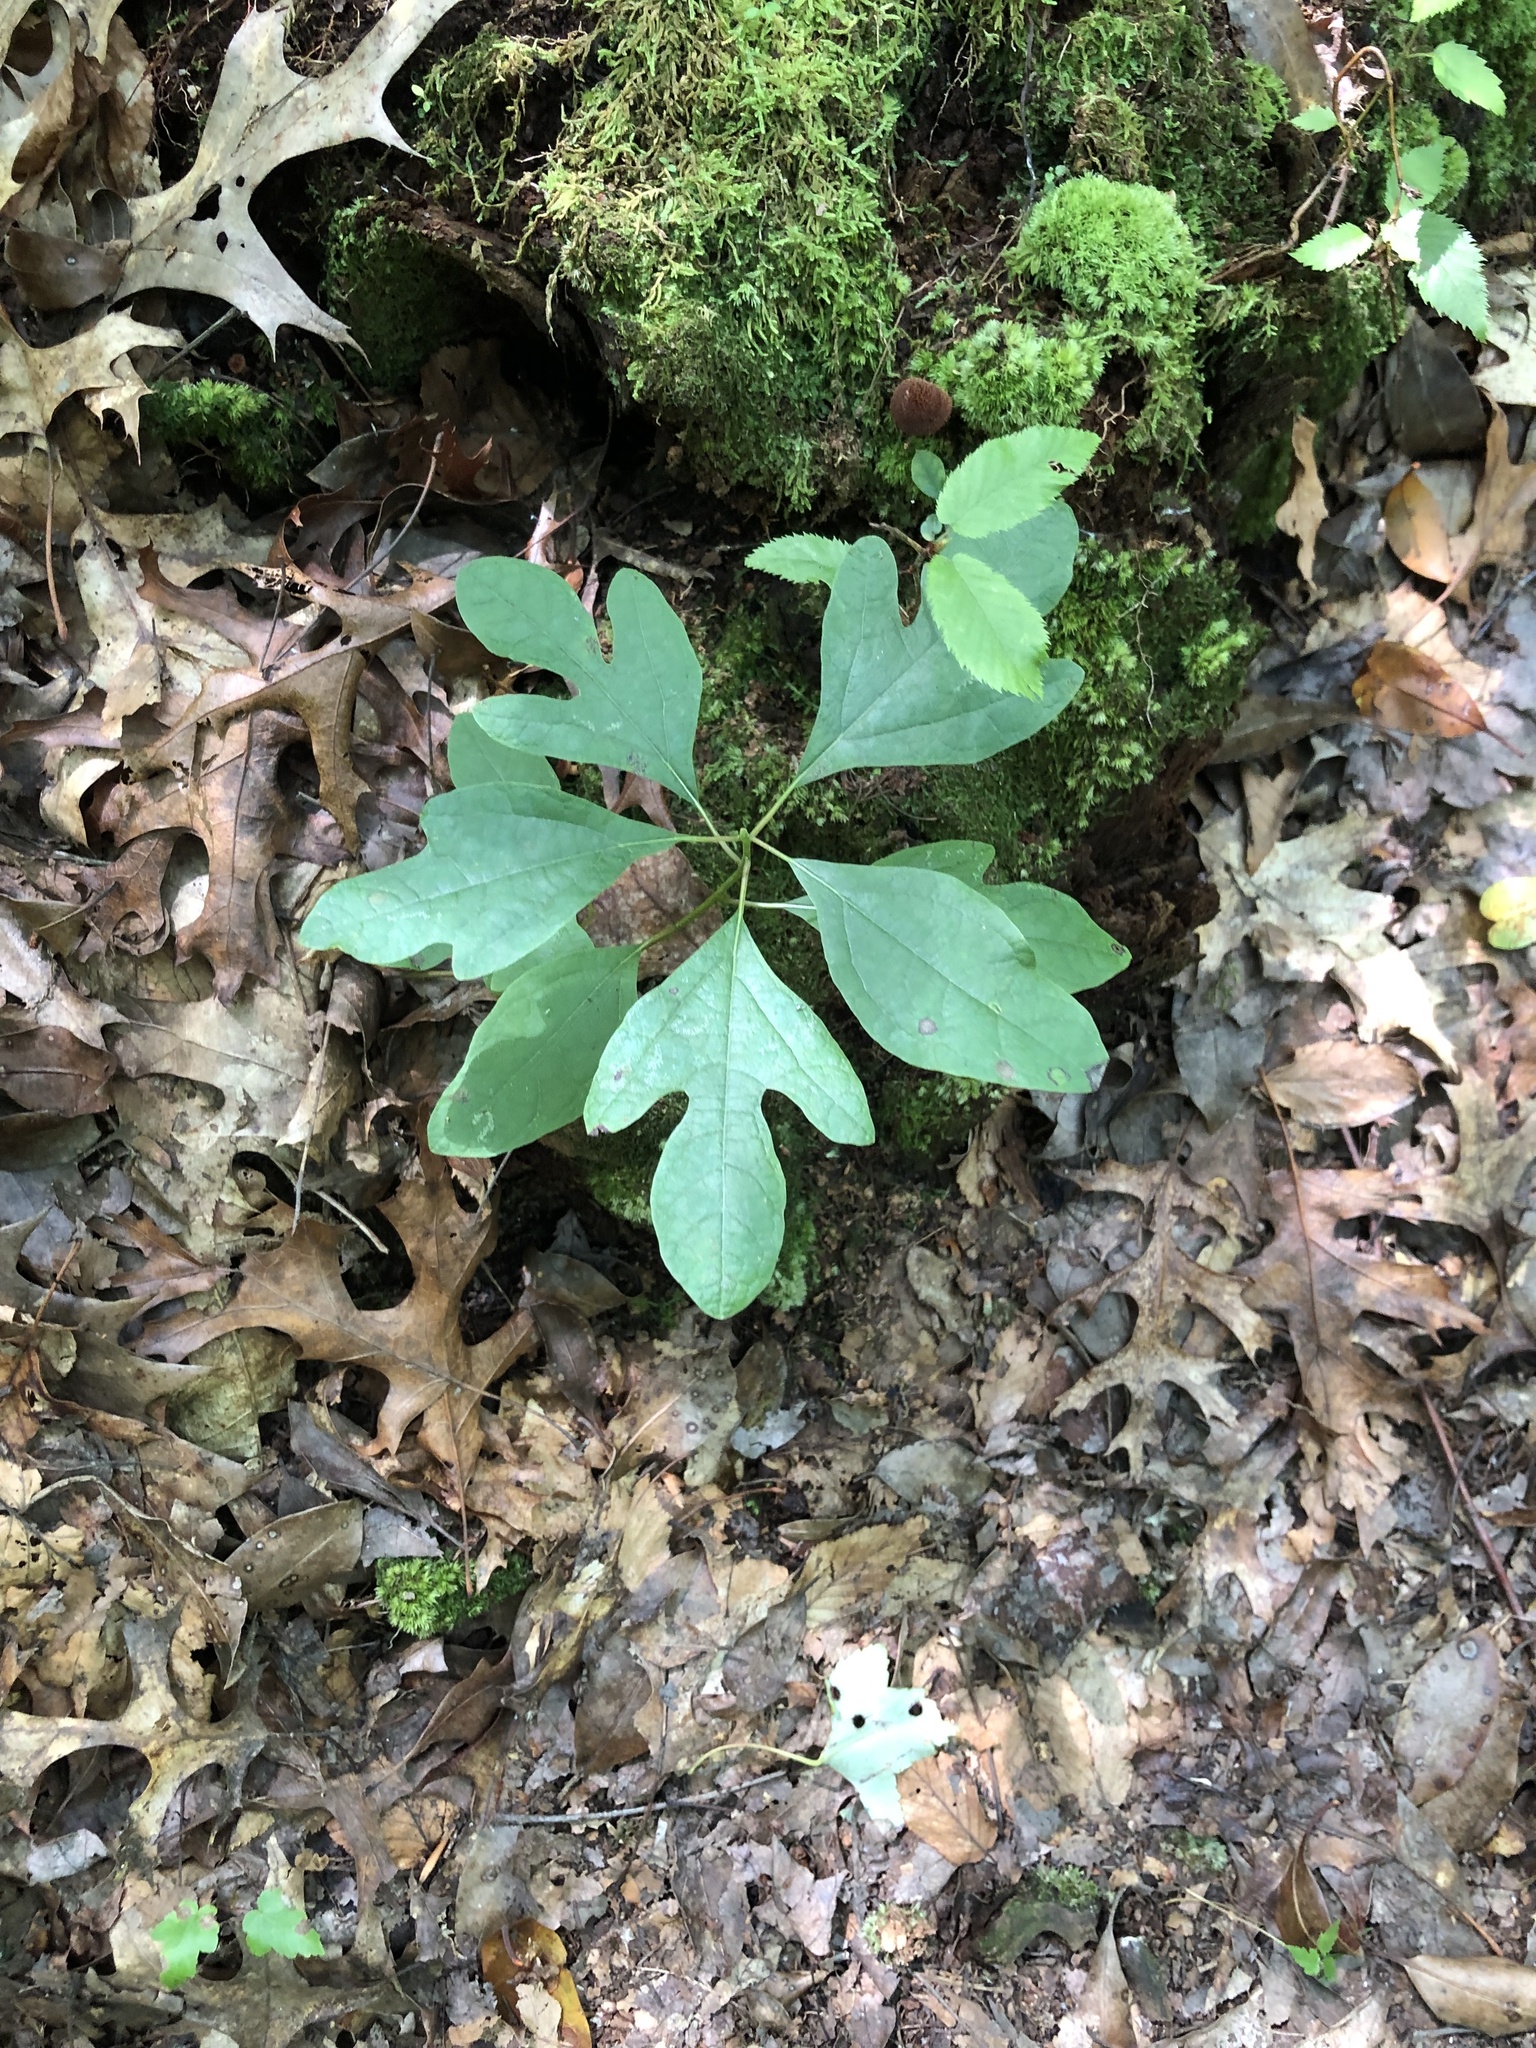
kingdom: Plantae
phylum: Tracheophyta
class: Magnoliopsida
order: Laurales
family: Lauraceae
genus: Sassafras
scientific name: Sassafras albidum
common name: Sassafras
